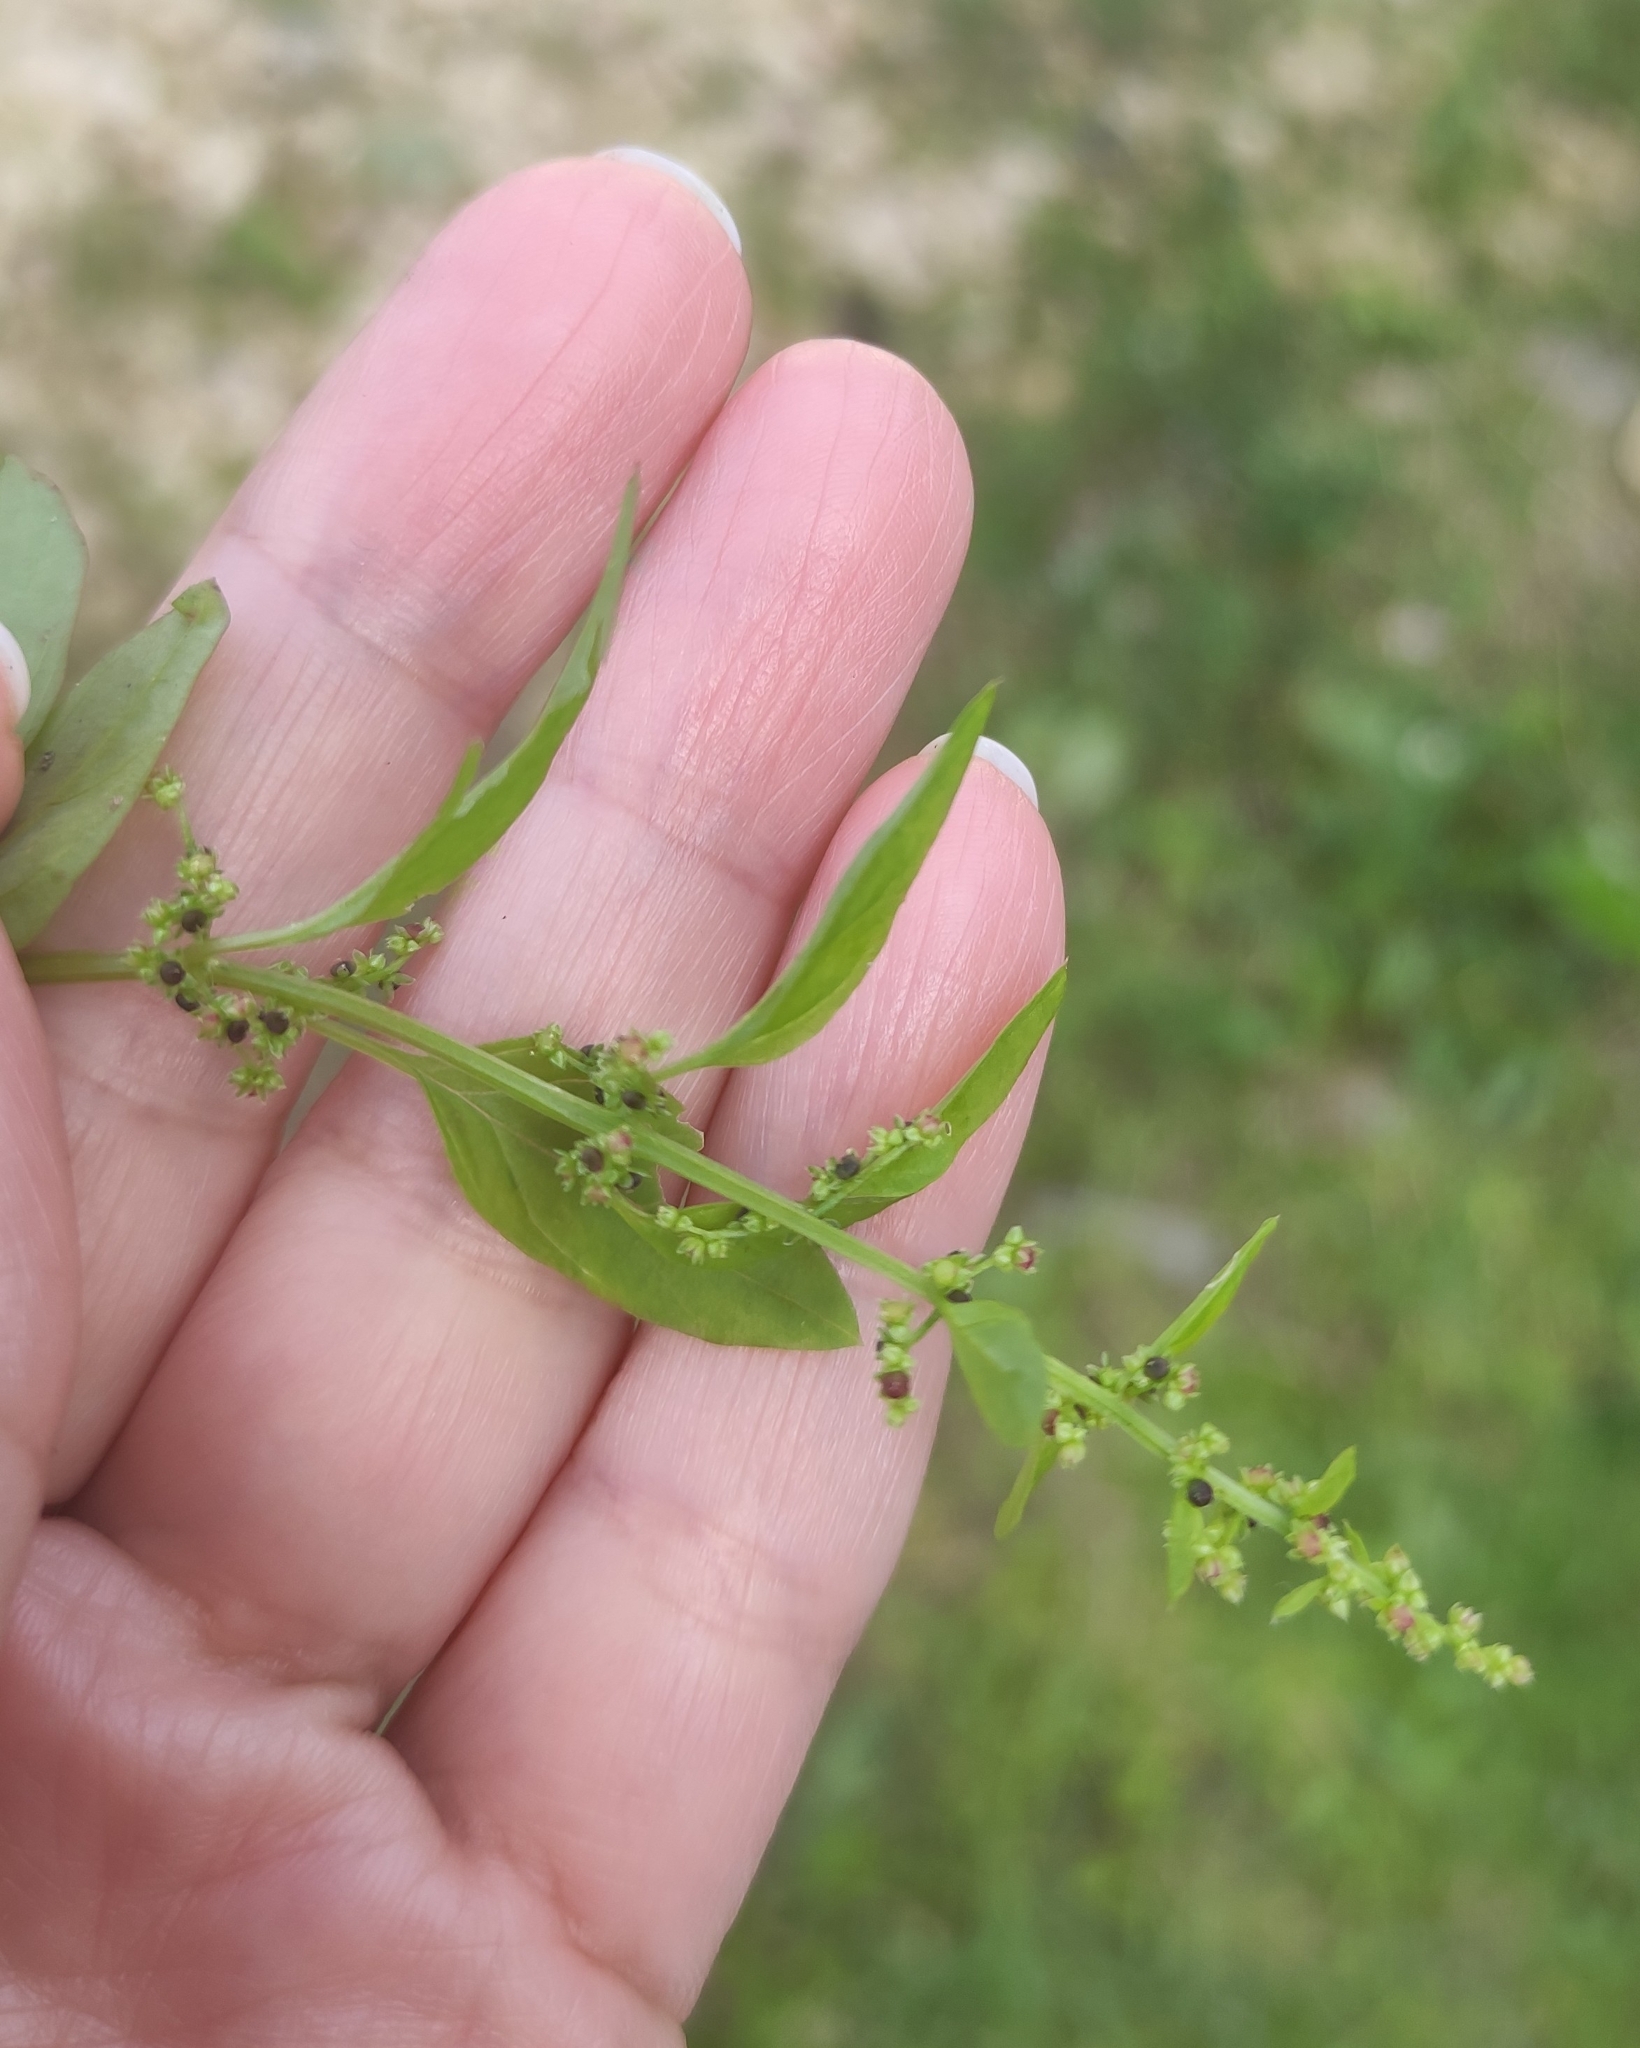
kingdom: Plantae
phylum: Tracheophyta
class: Magnoliopsida
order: Caryophyllales
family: Amaranthaceae
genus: Lipandra
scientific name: Lipandra polysperma
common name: Many-seed goosefoot
